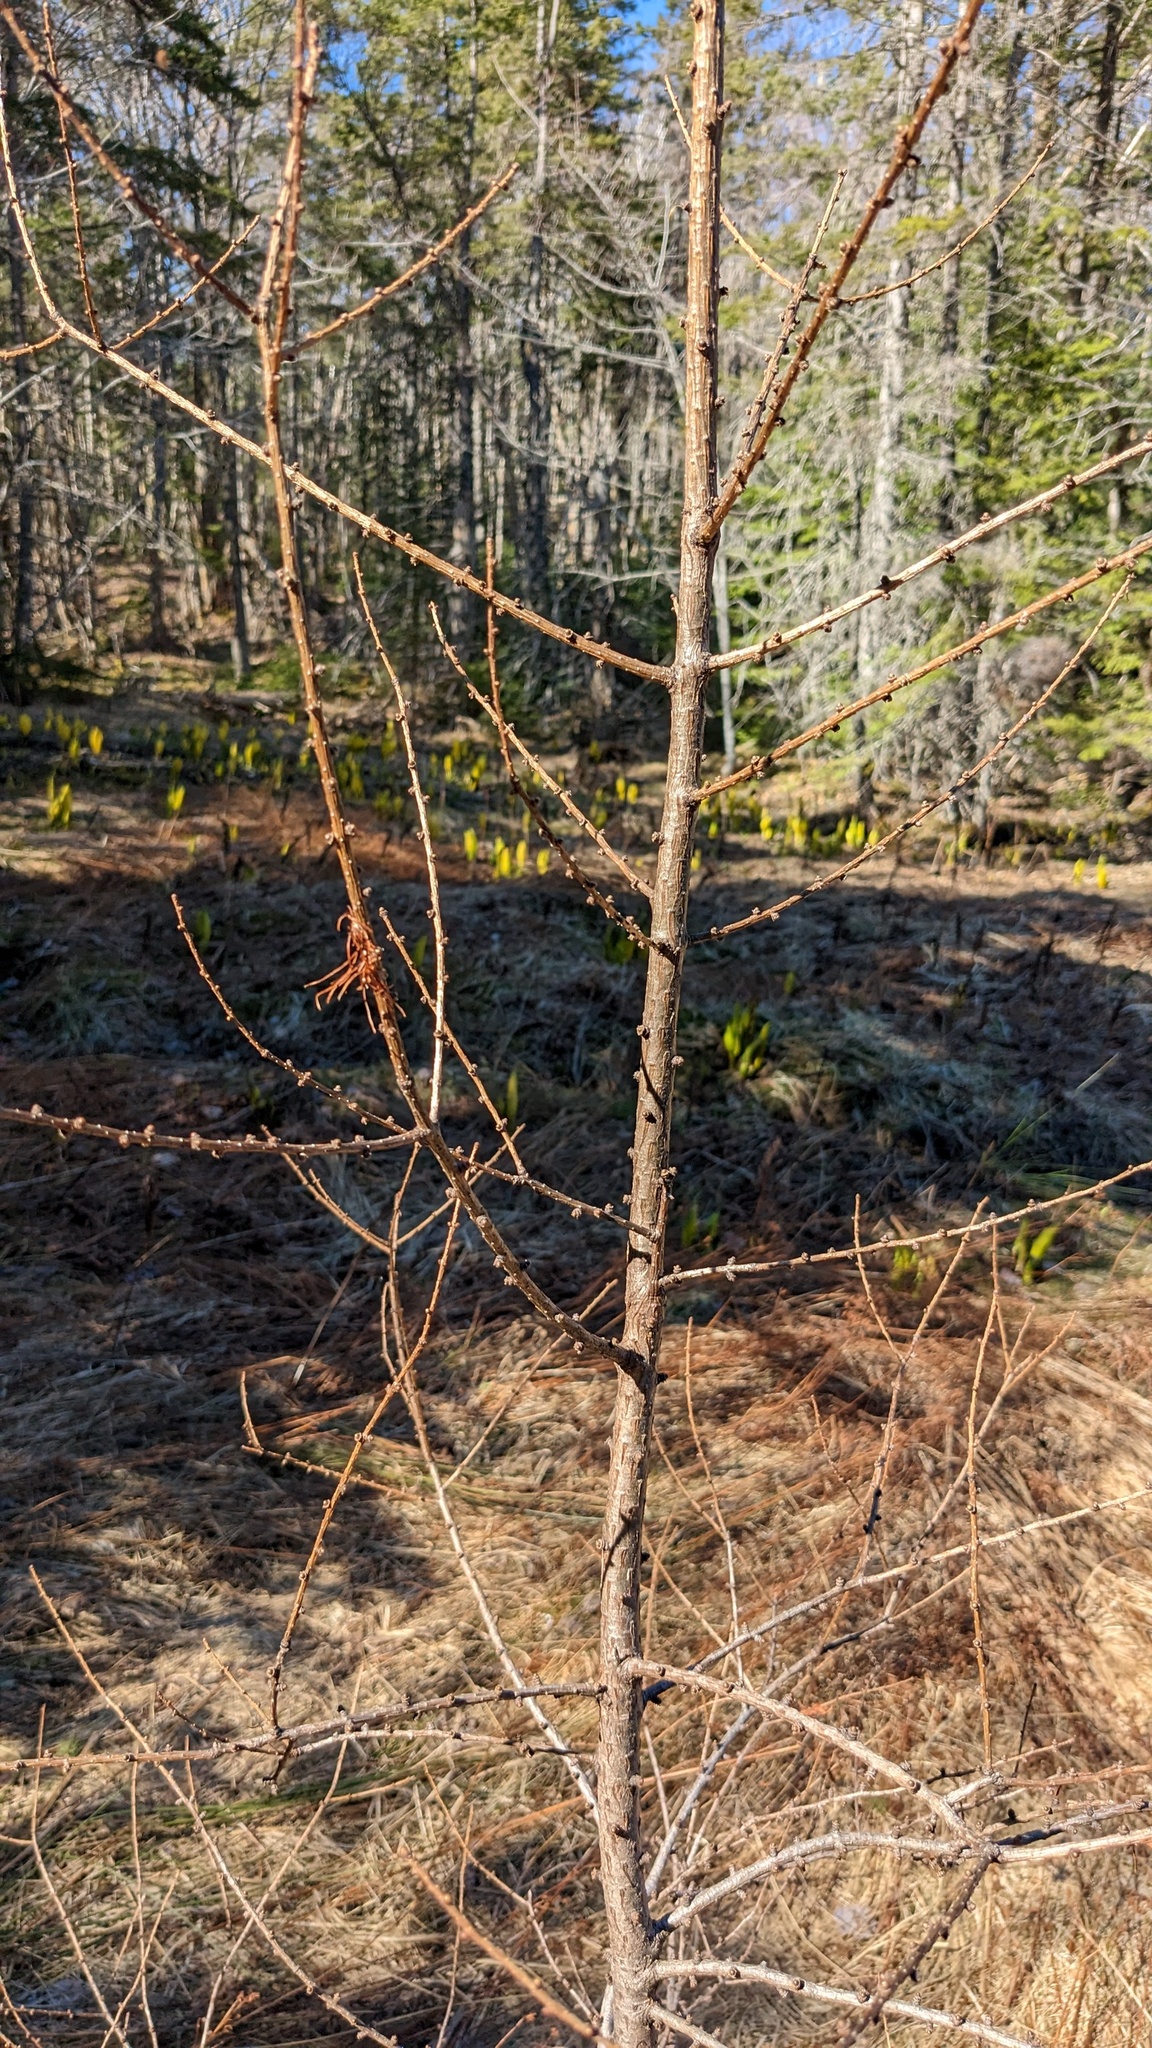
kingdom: Plantae
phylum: Tracheophyta
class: Pinopsida
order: Pinales
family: Pinaceae
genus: Larix
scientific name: Larix laricina
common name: American larch
